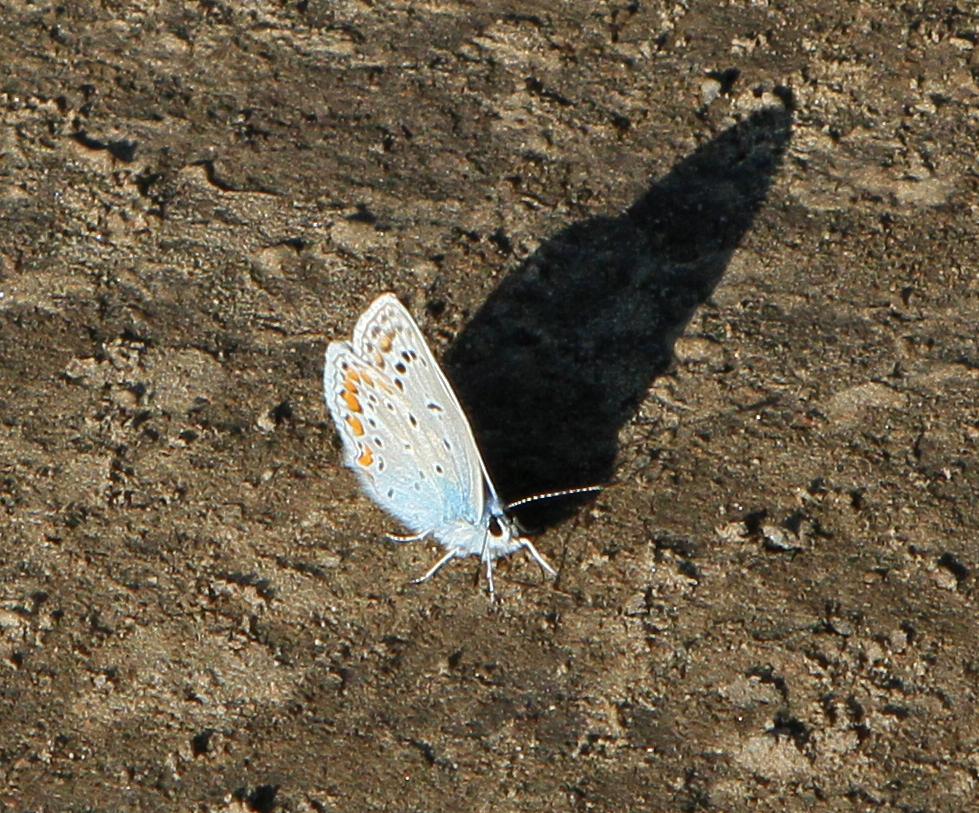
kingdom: Animalia
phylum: Arthropoda
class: Insecta
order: Lepidoptera
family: Lycaenidae
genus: Polyommatus
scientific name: Polyommatus icarus
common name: Common blue
